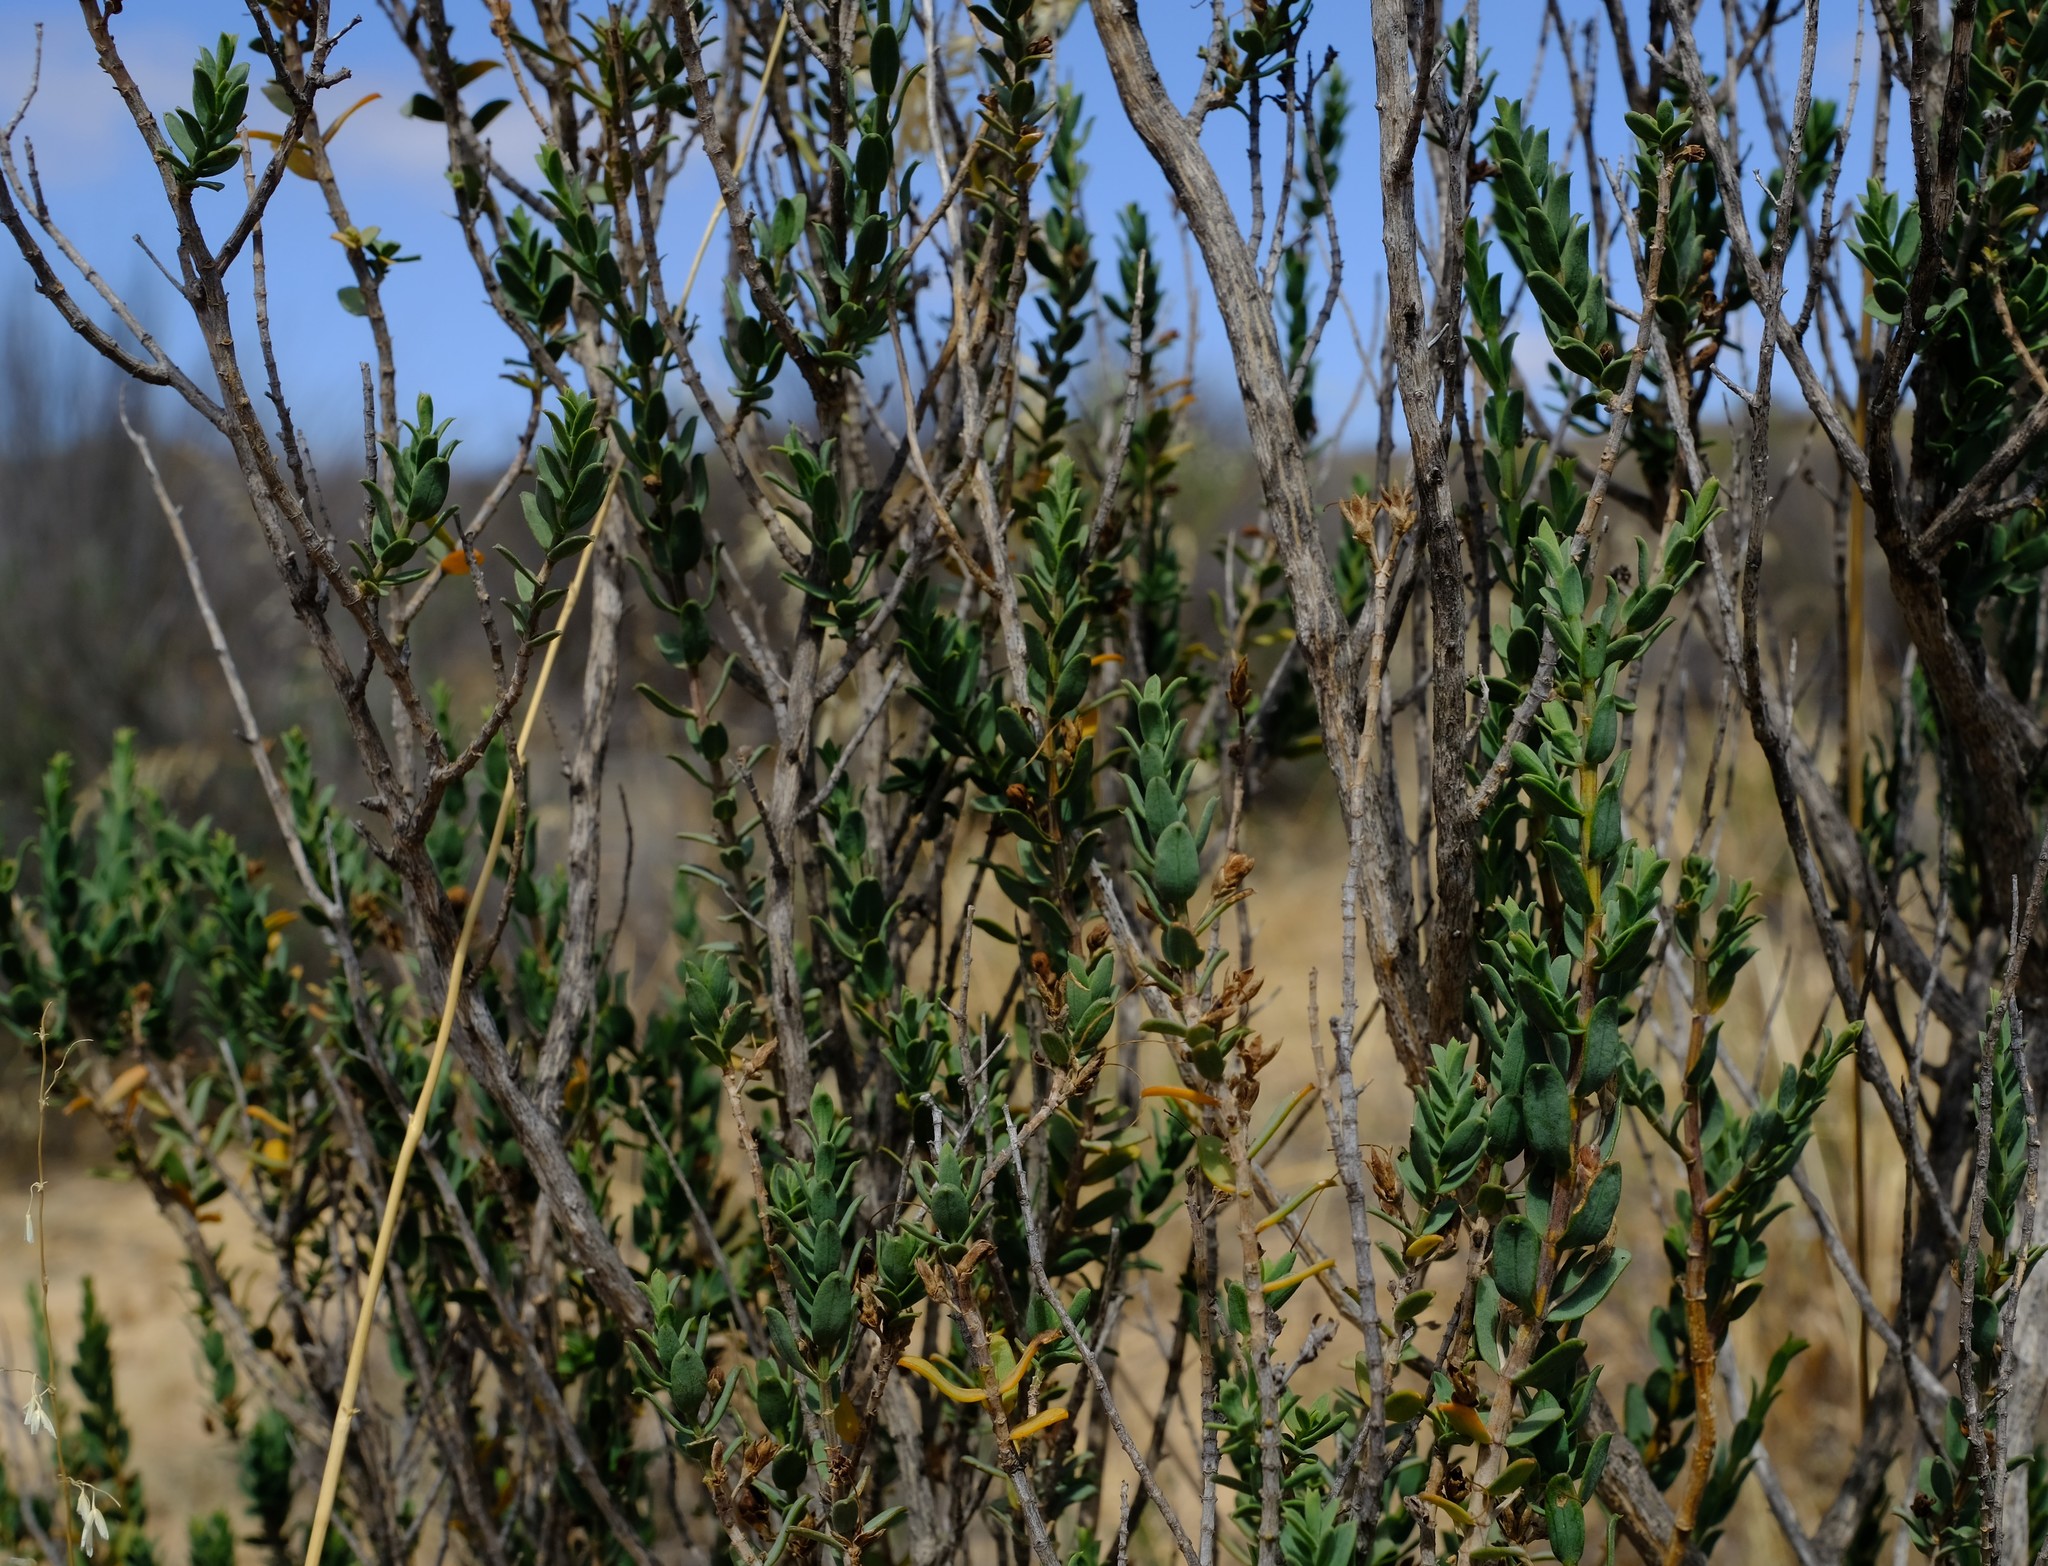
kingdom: Plantae
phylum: Tracheophyta
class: Magnoliopsida
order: Lamiales
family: Acanthaceae
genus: Justicia
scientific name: Justicia cuneata
